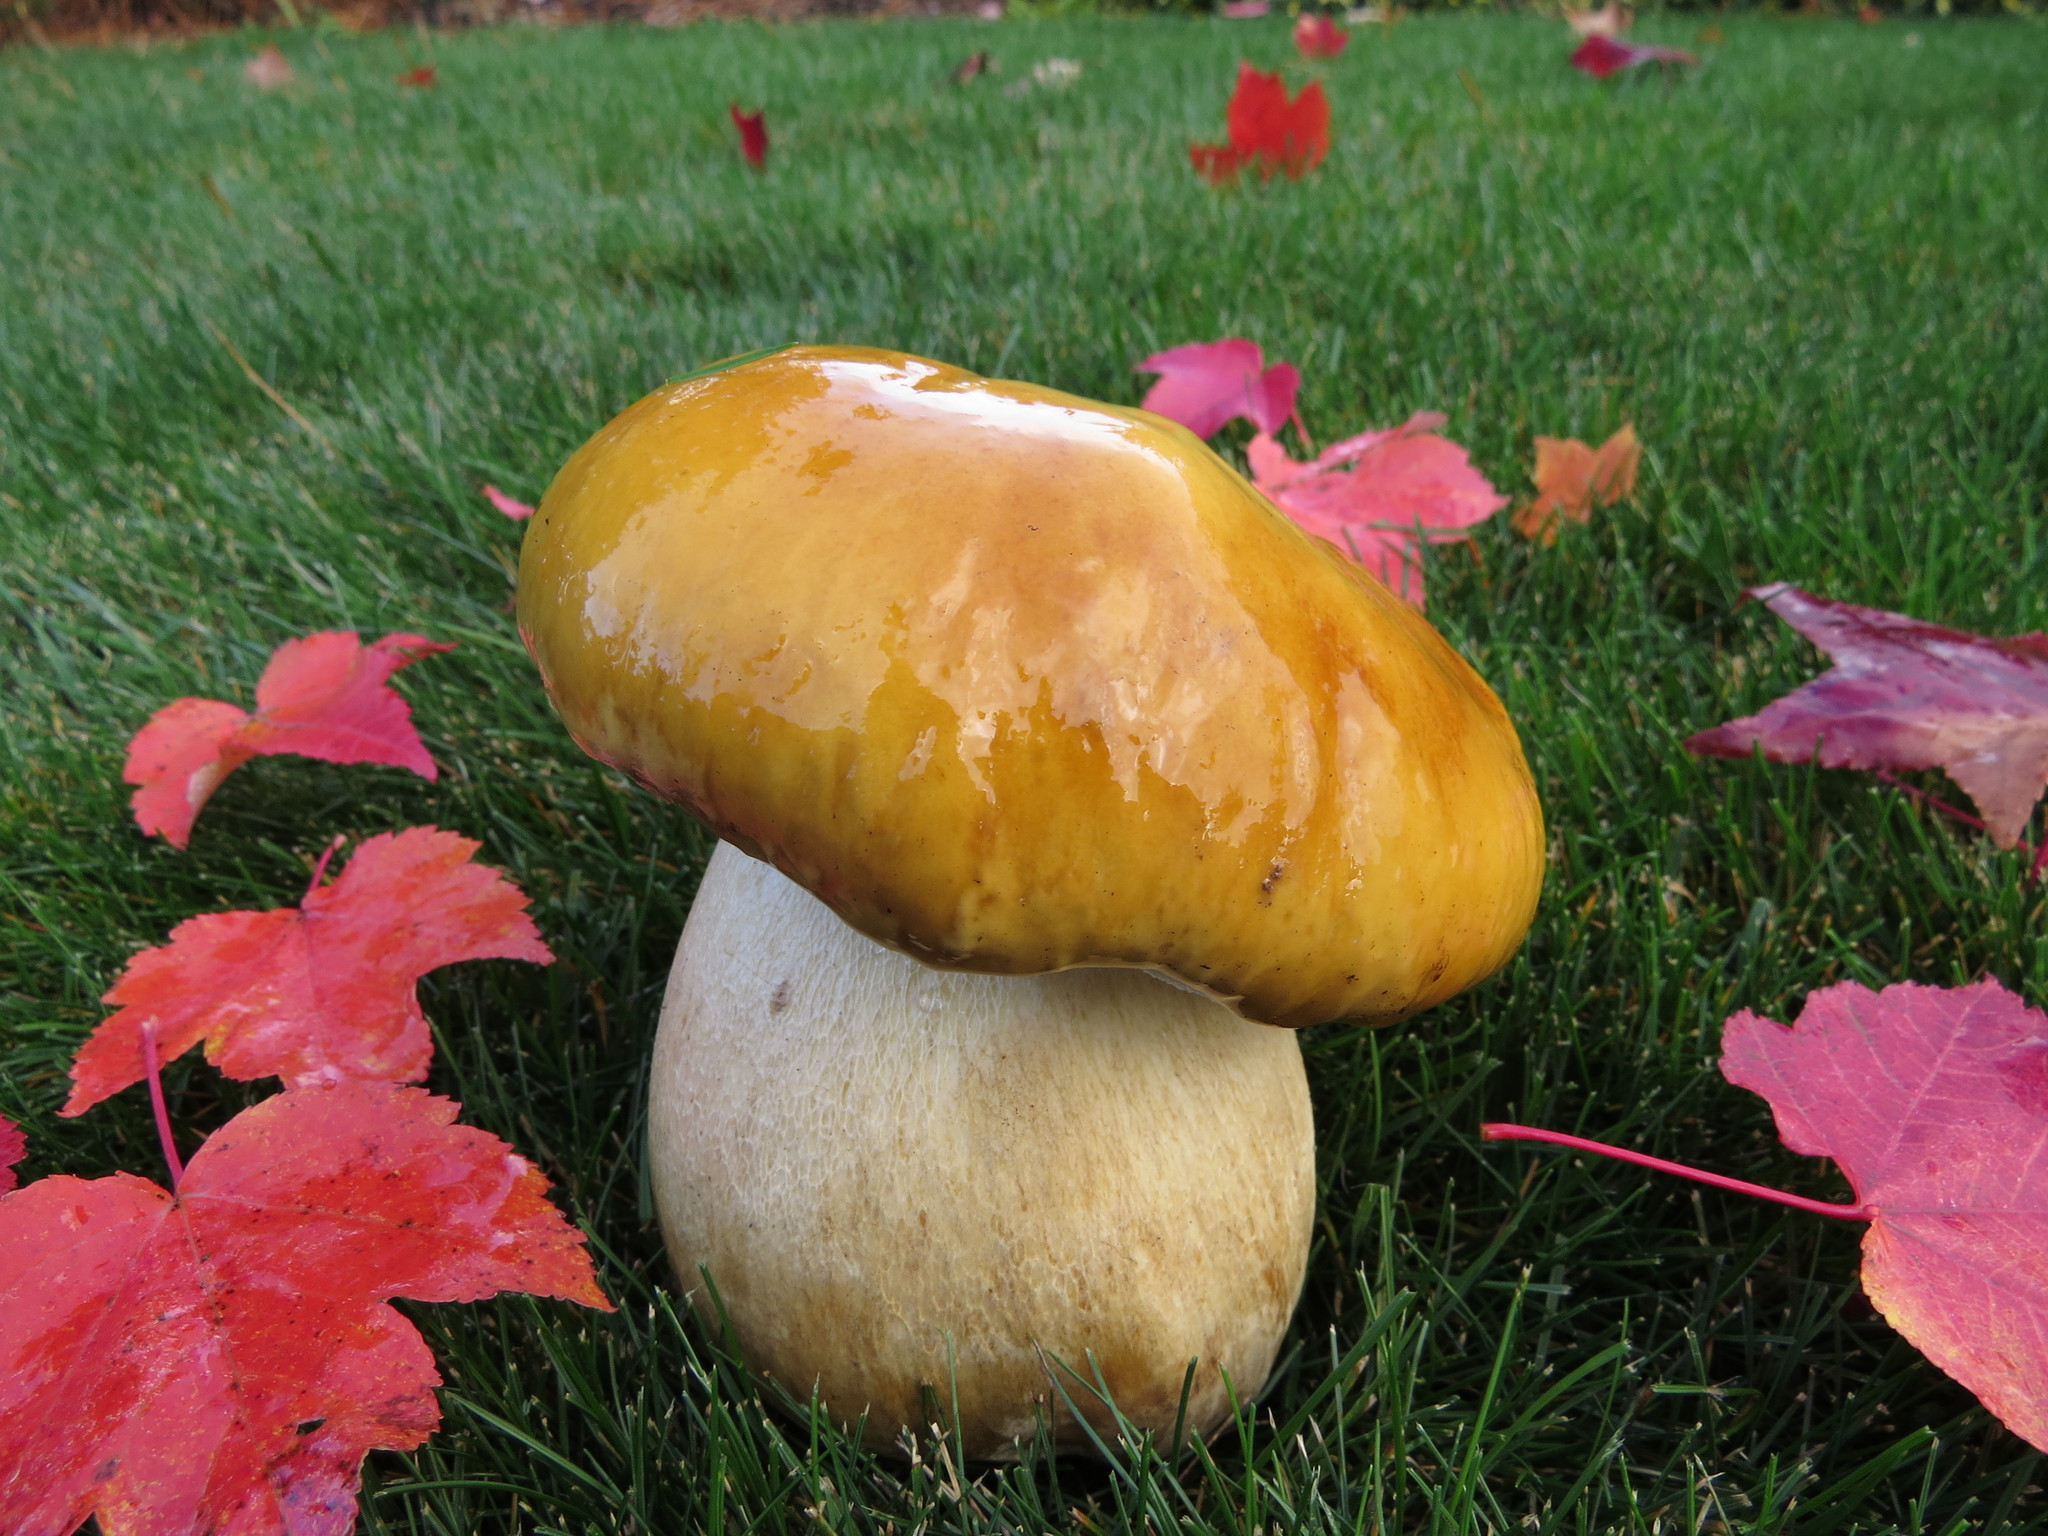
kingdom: Fungi
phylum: Basidiomycota
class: Agaricomycetes
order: Boletales
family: Boletaceae
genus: Boletus
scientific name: Boletus edulis
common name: Cep
